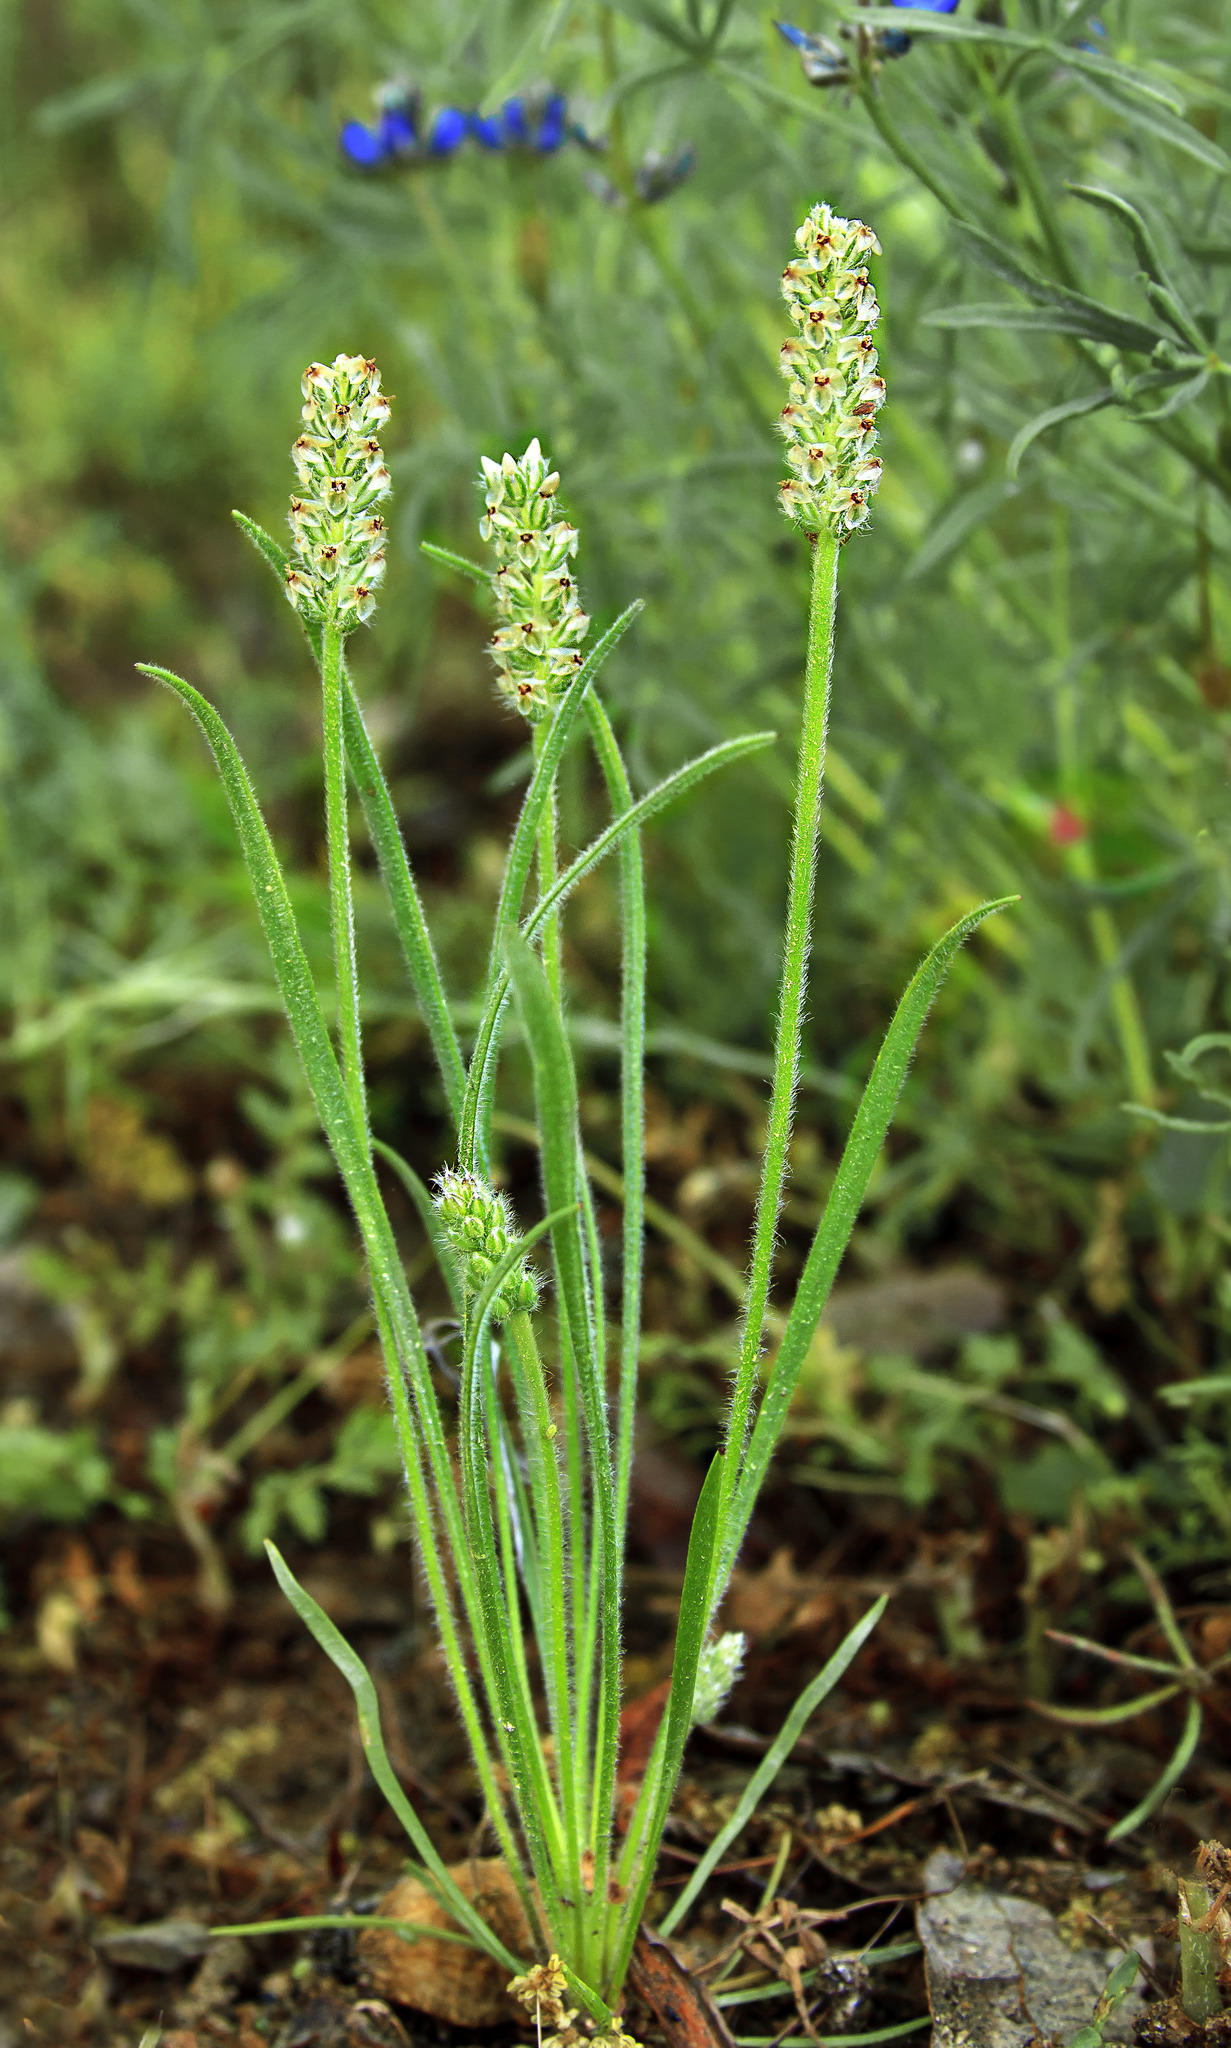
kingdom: Plantae
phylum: Tracheophyta
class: Magnoliopsida
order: Lamiales
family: Plantaginaceae
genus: Plantago
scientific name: Plantago erecta
